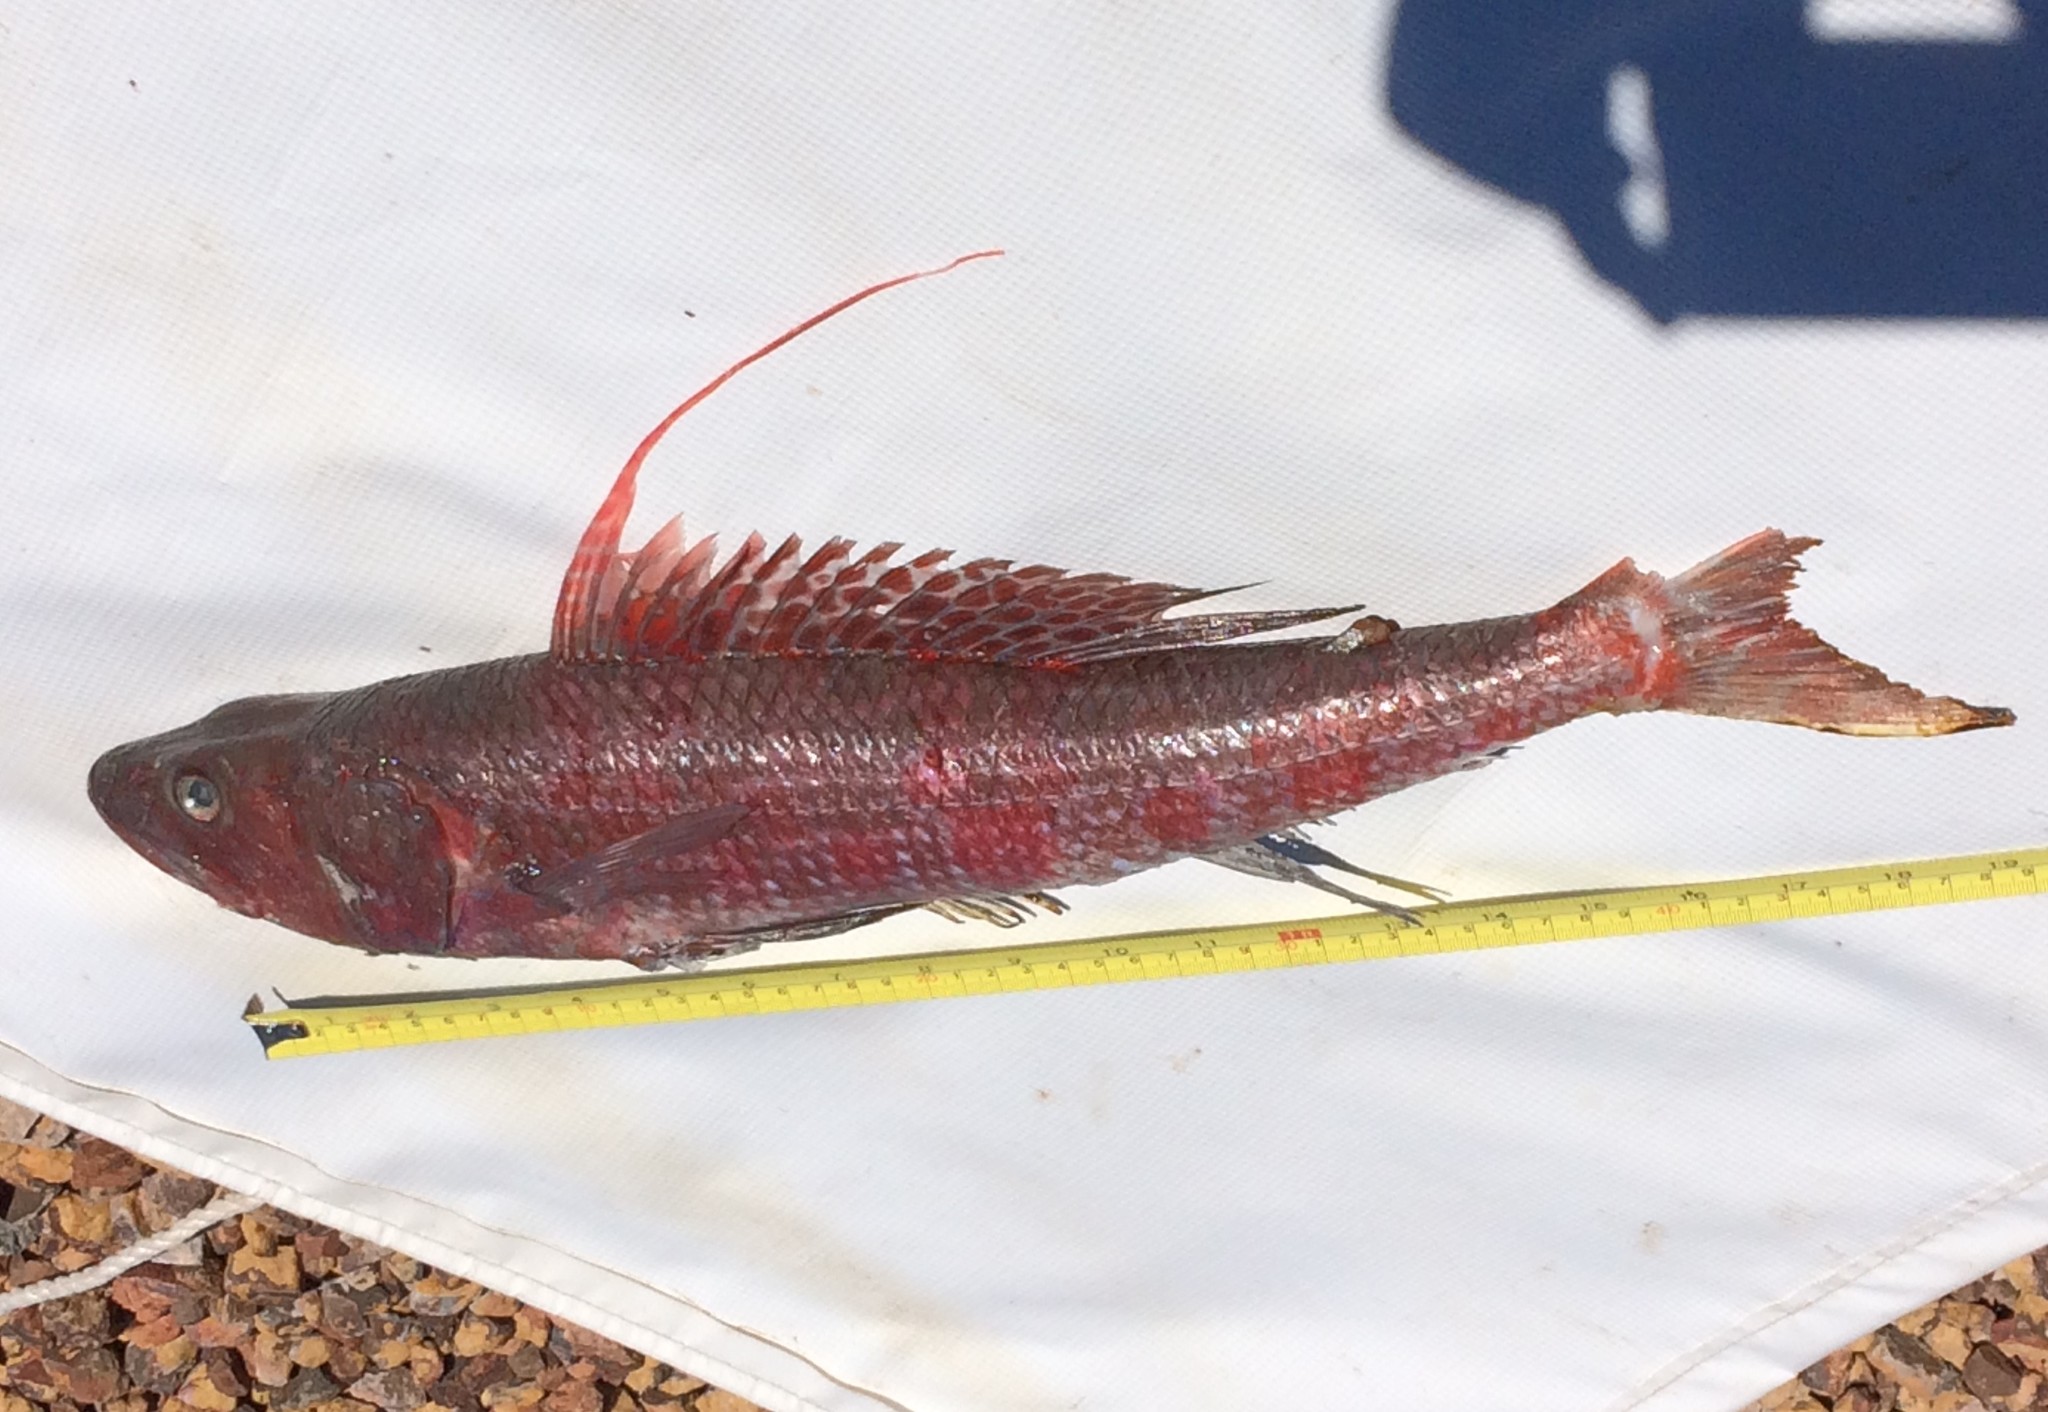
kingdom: Animalia
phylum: Chordata
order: Aulopiformes
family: Aulopidae
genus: Latropiscis
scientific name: Latropiscis purpurissatus
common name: Sergeant baker
